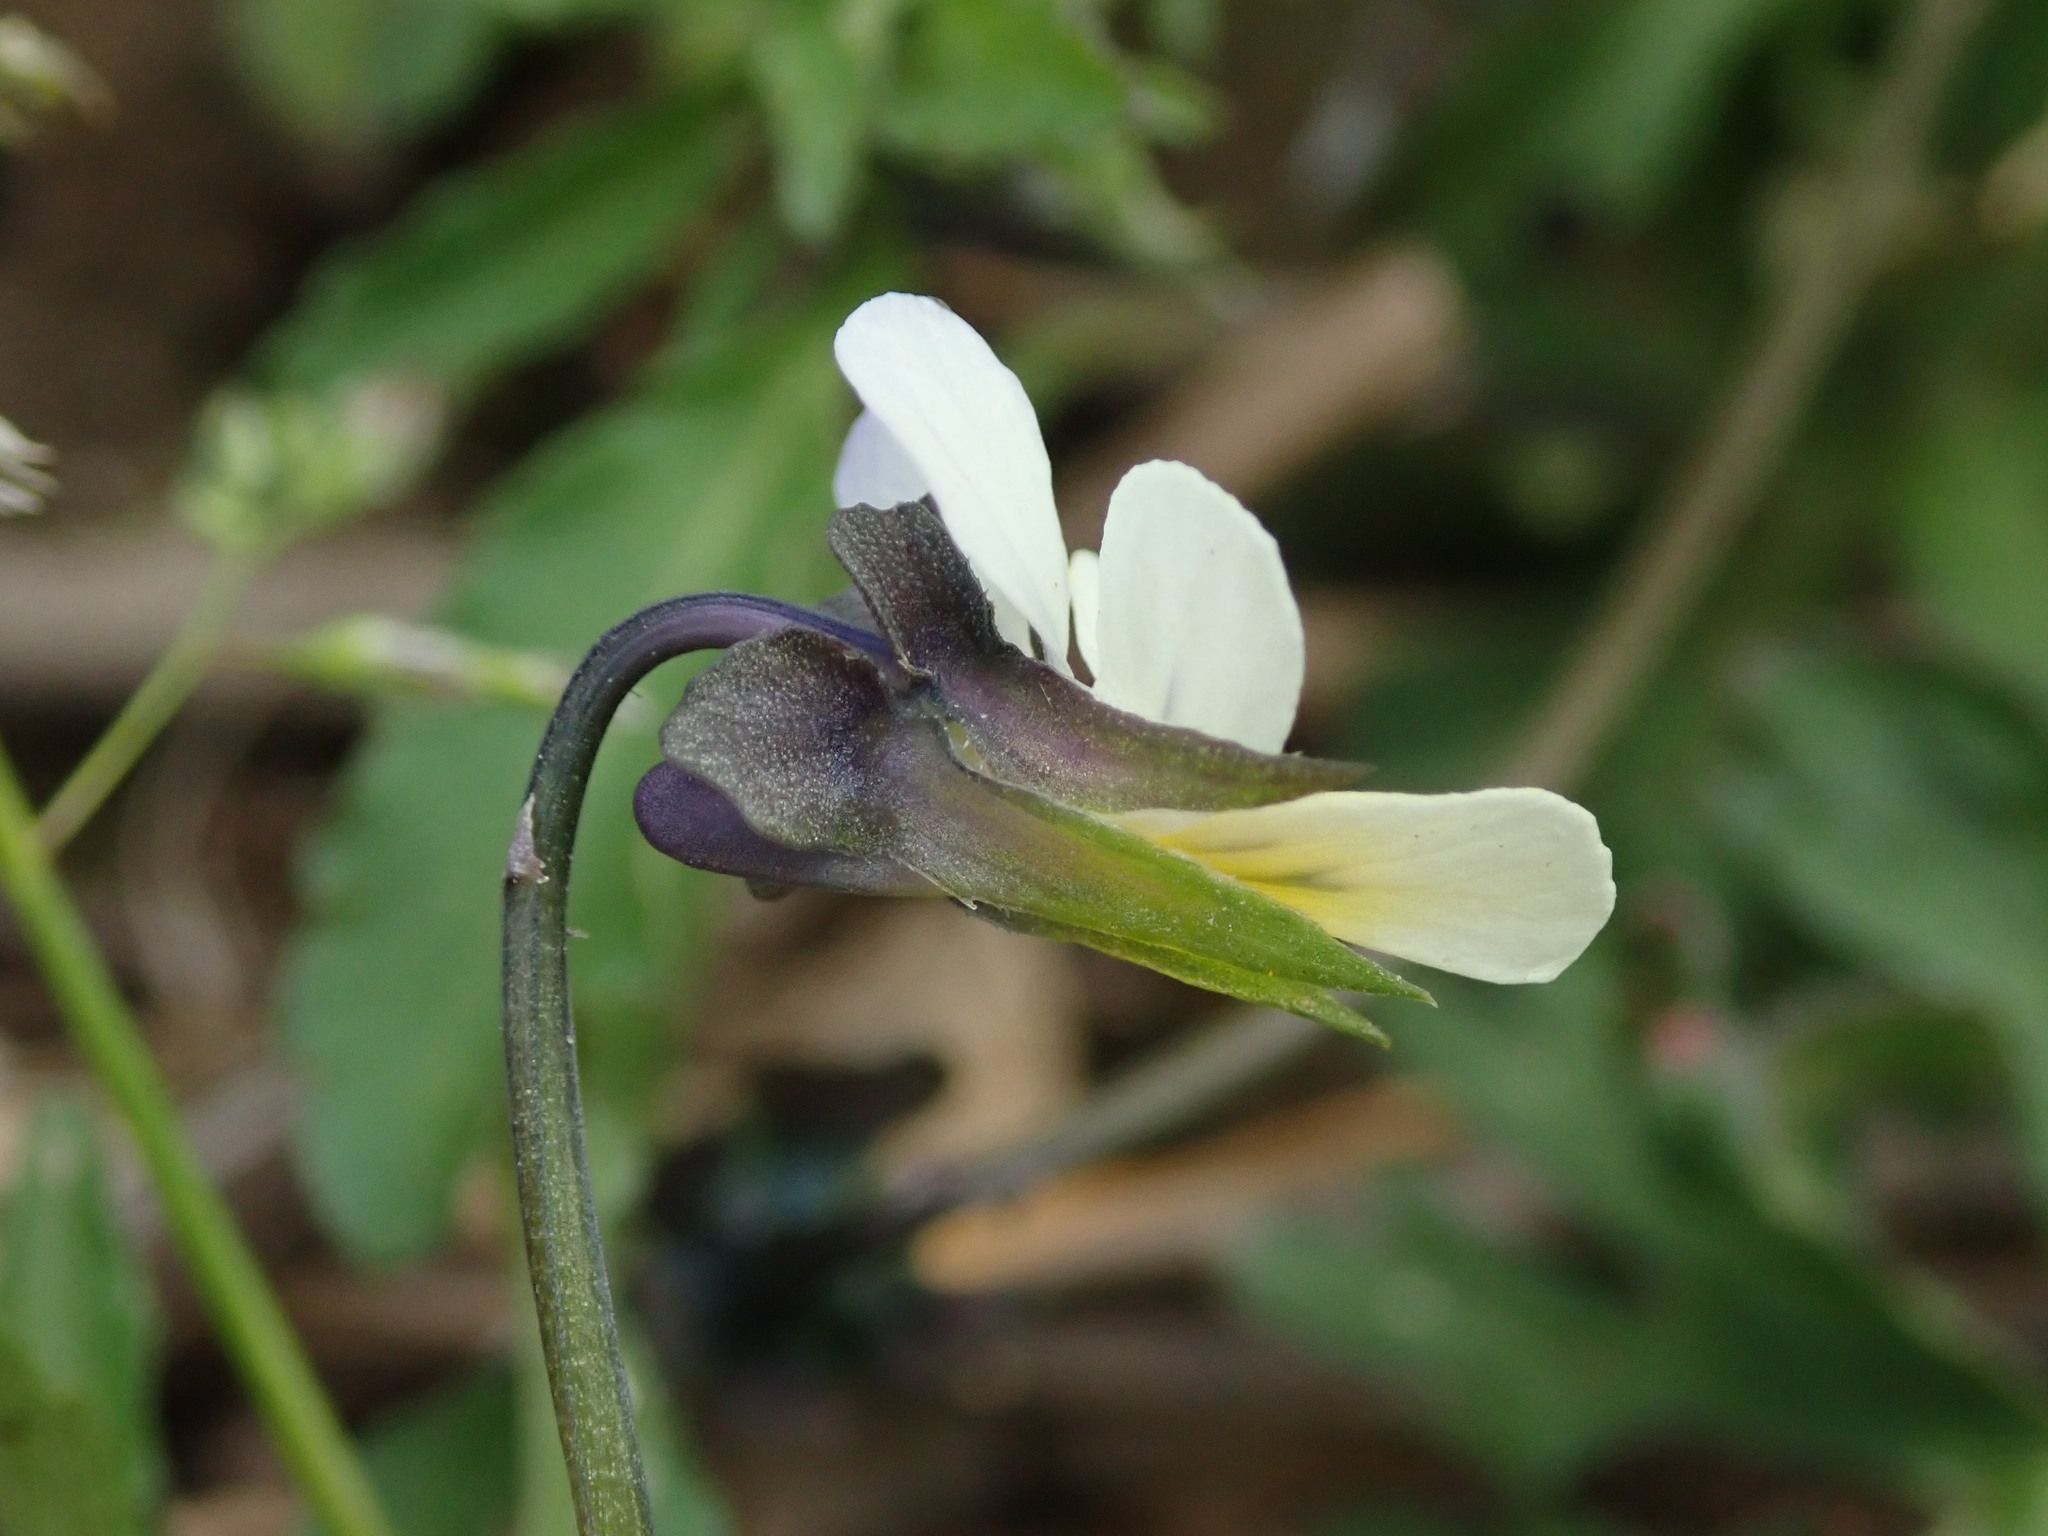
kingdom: Plantae
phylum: Tracheophyta
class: Magnoliopsida
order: Malpighiales
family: Violaceae
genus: Viola
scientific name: Viola arvensis
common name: Field pansy
